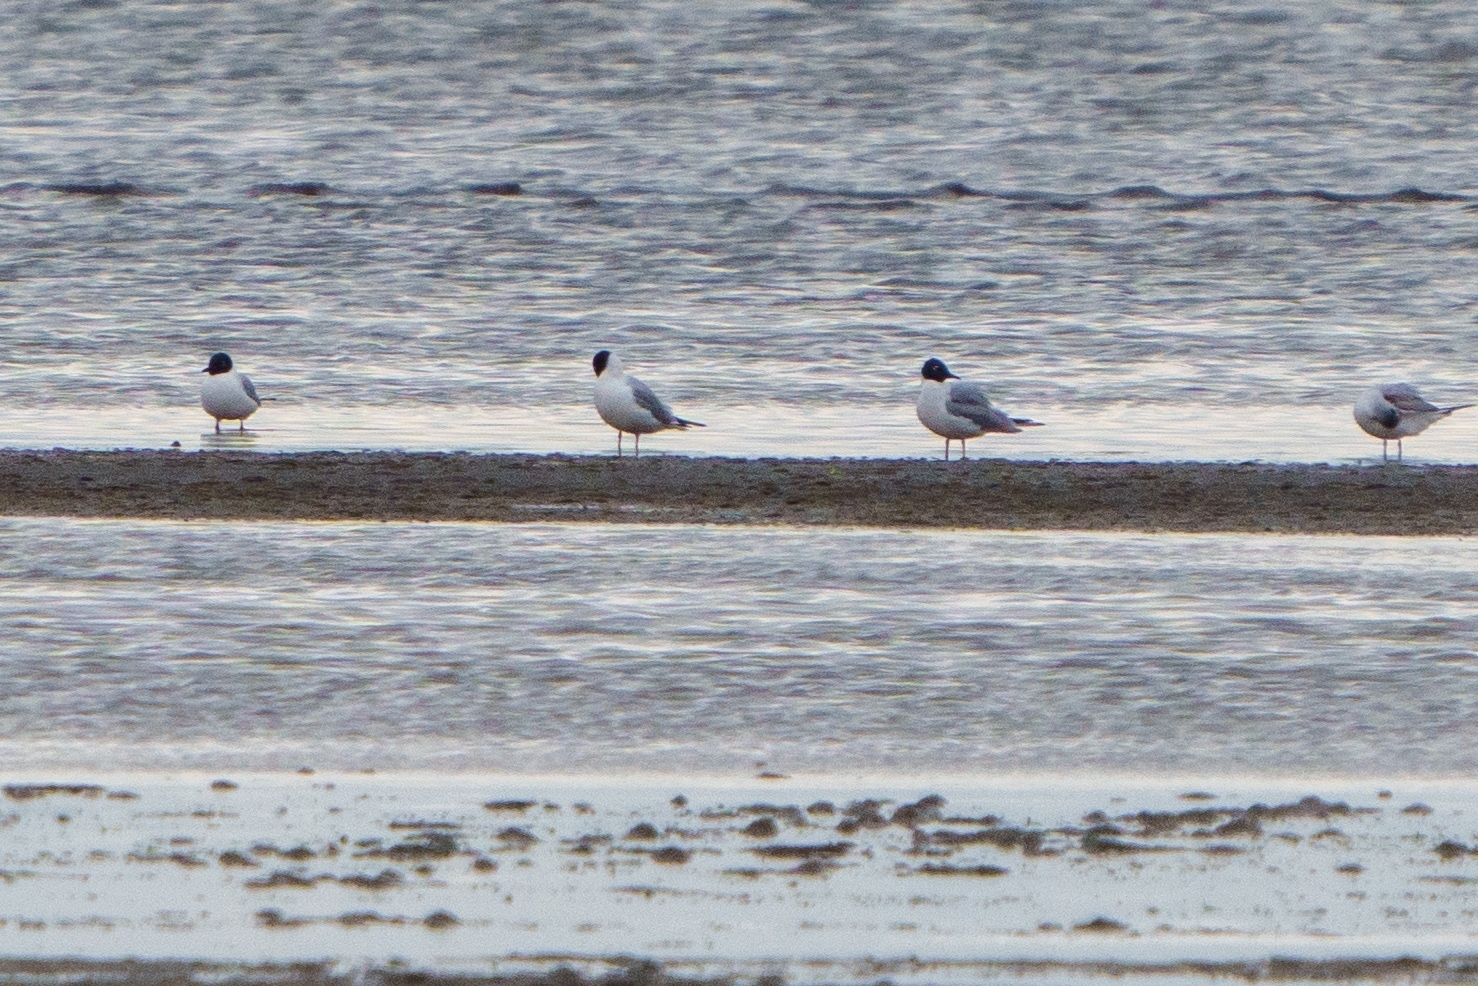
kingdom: Animalia
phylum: Chordata
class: Aves
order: Charadriiformes
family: Laridae
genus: Chroicocephalus
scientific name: Chroicocephalus philadelphia
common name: Bonaparte's gull
